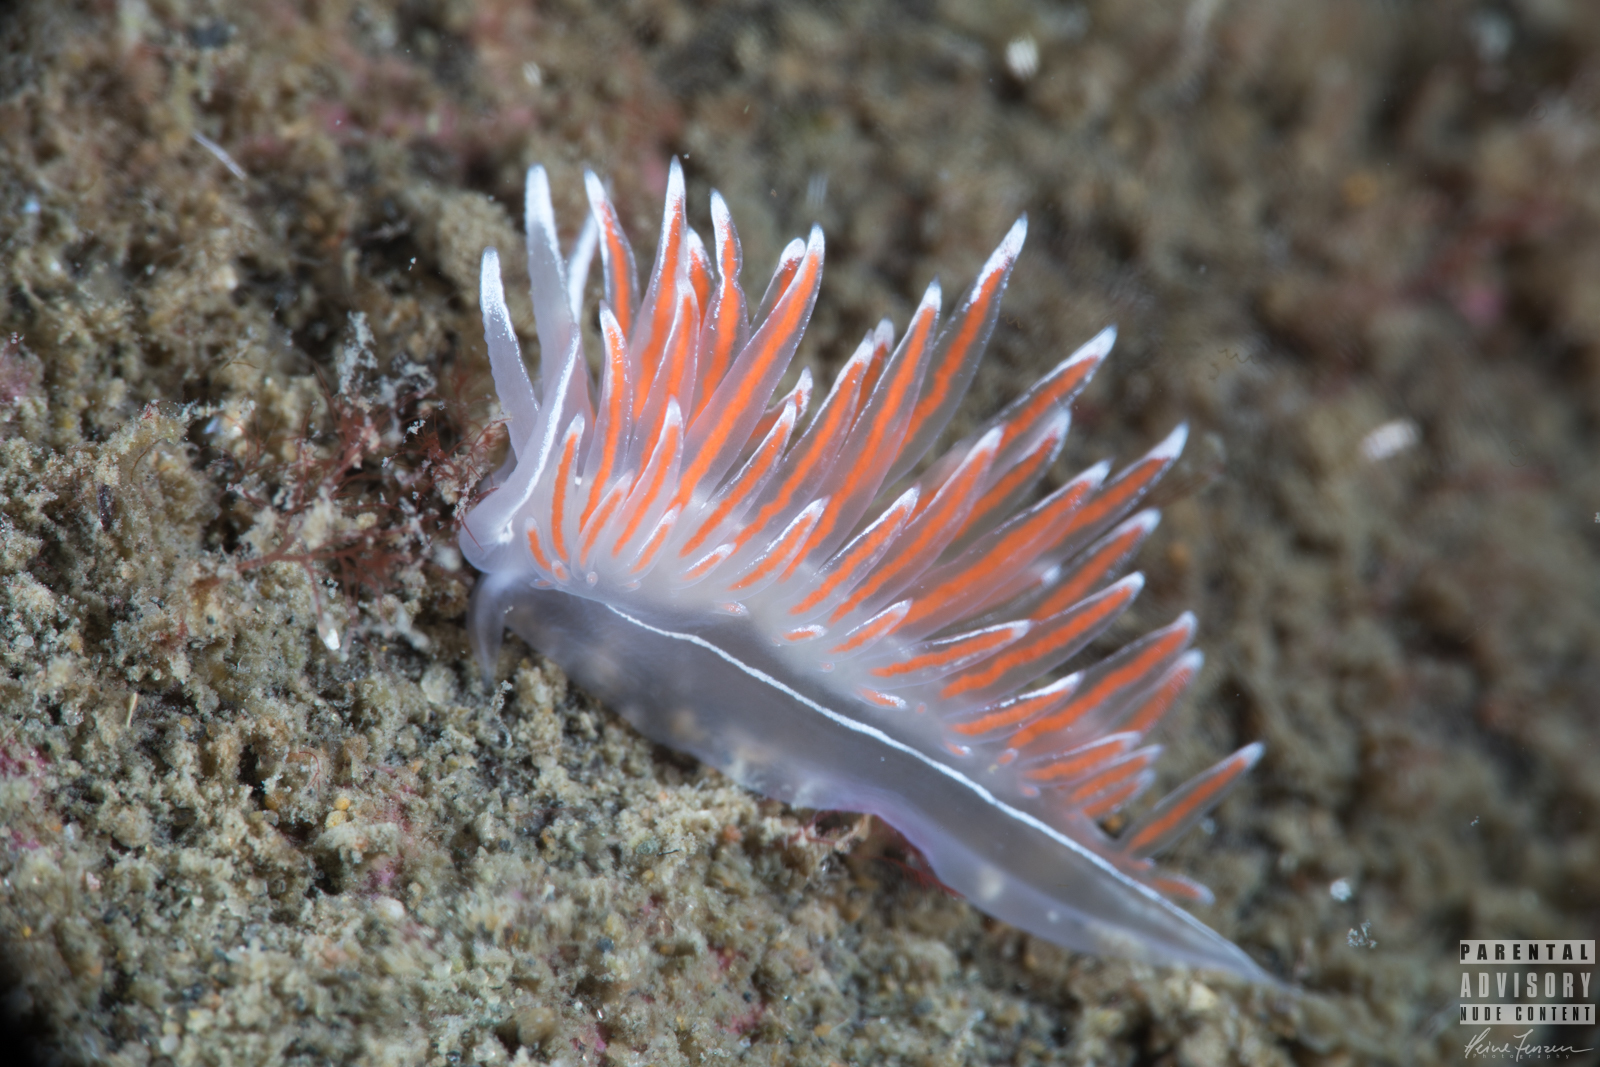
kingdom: Animalia
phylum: Mollusca
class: Gastropoda
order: Nudibranchia
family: Coryphellidae
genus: Coryphella
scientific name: Coryphella lineata
